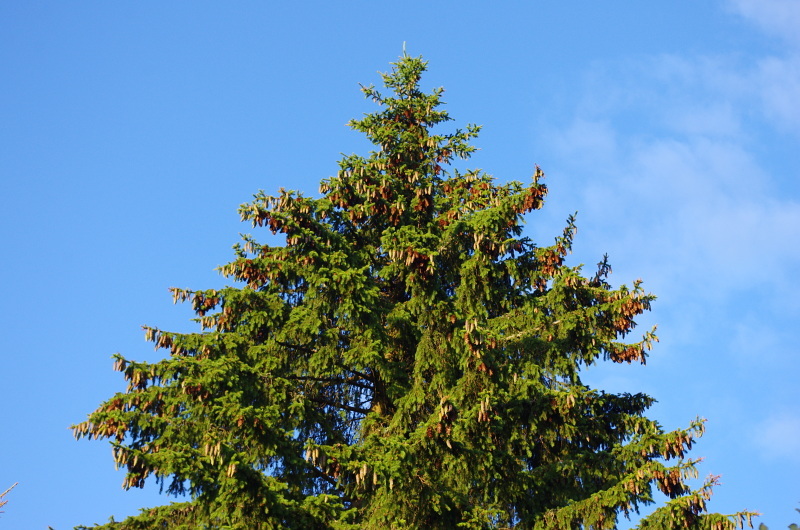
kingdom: Plantae
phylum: Tracheophyta
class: Pinopsida
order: Pinales
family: Pinaceae
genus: Picea
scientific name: Picea abies
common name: Norway spruce
